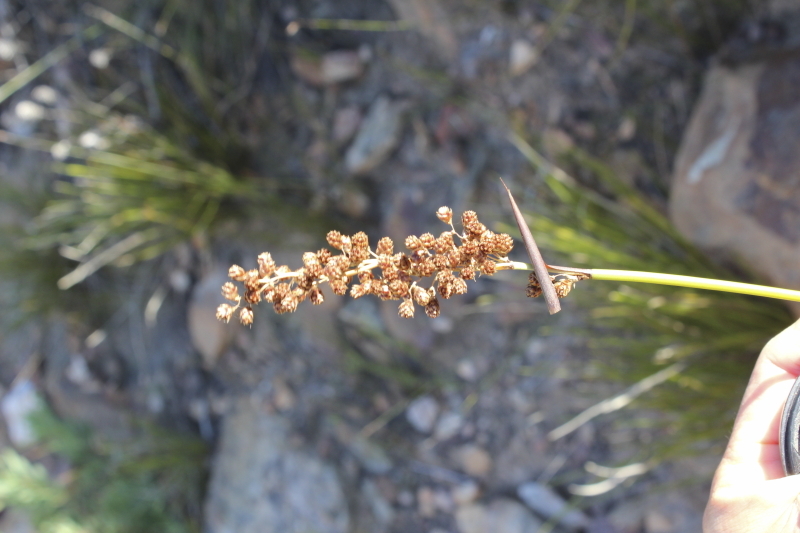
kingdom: Plantae
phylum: Tracheophyta
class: Liliopsida
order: Poales
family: Restionaceae
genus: Cannomois
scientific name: Cannomois scirpoides
